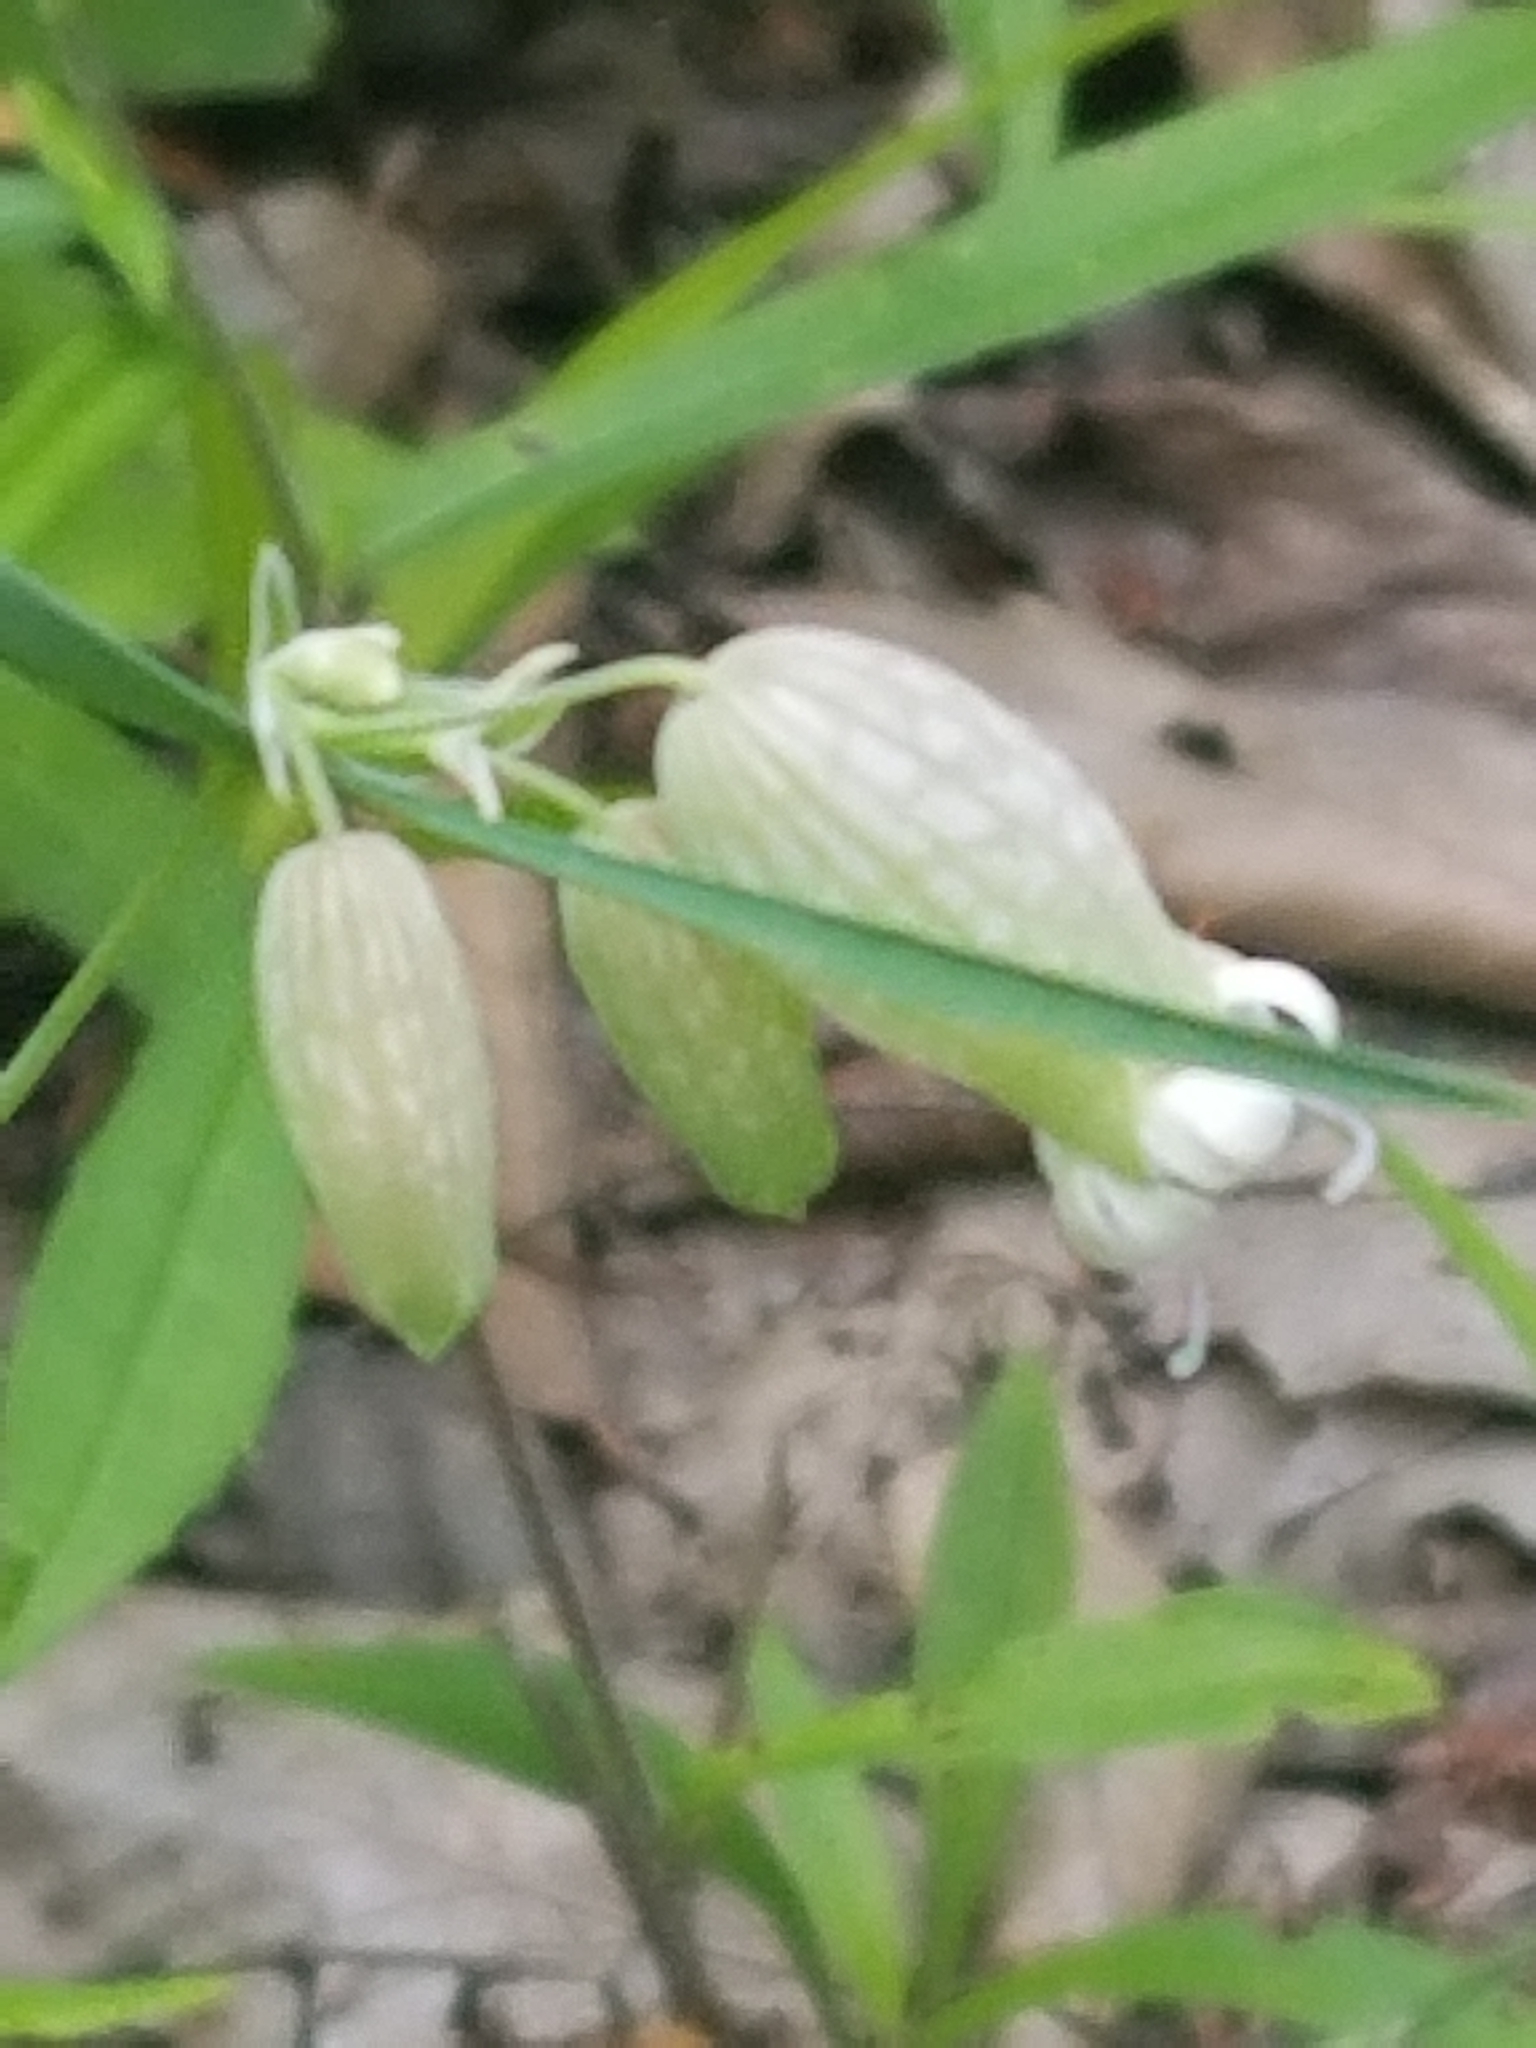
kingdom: Plantae
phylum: Tracheophyta
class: Magnoliopsida
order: Caryophyllales
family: Caryophyllaceae
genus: Silene
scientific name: Silene vulgaris
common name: Bladder campion
